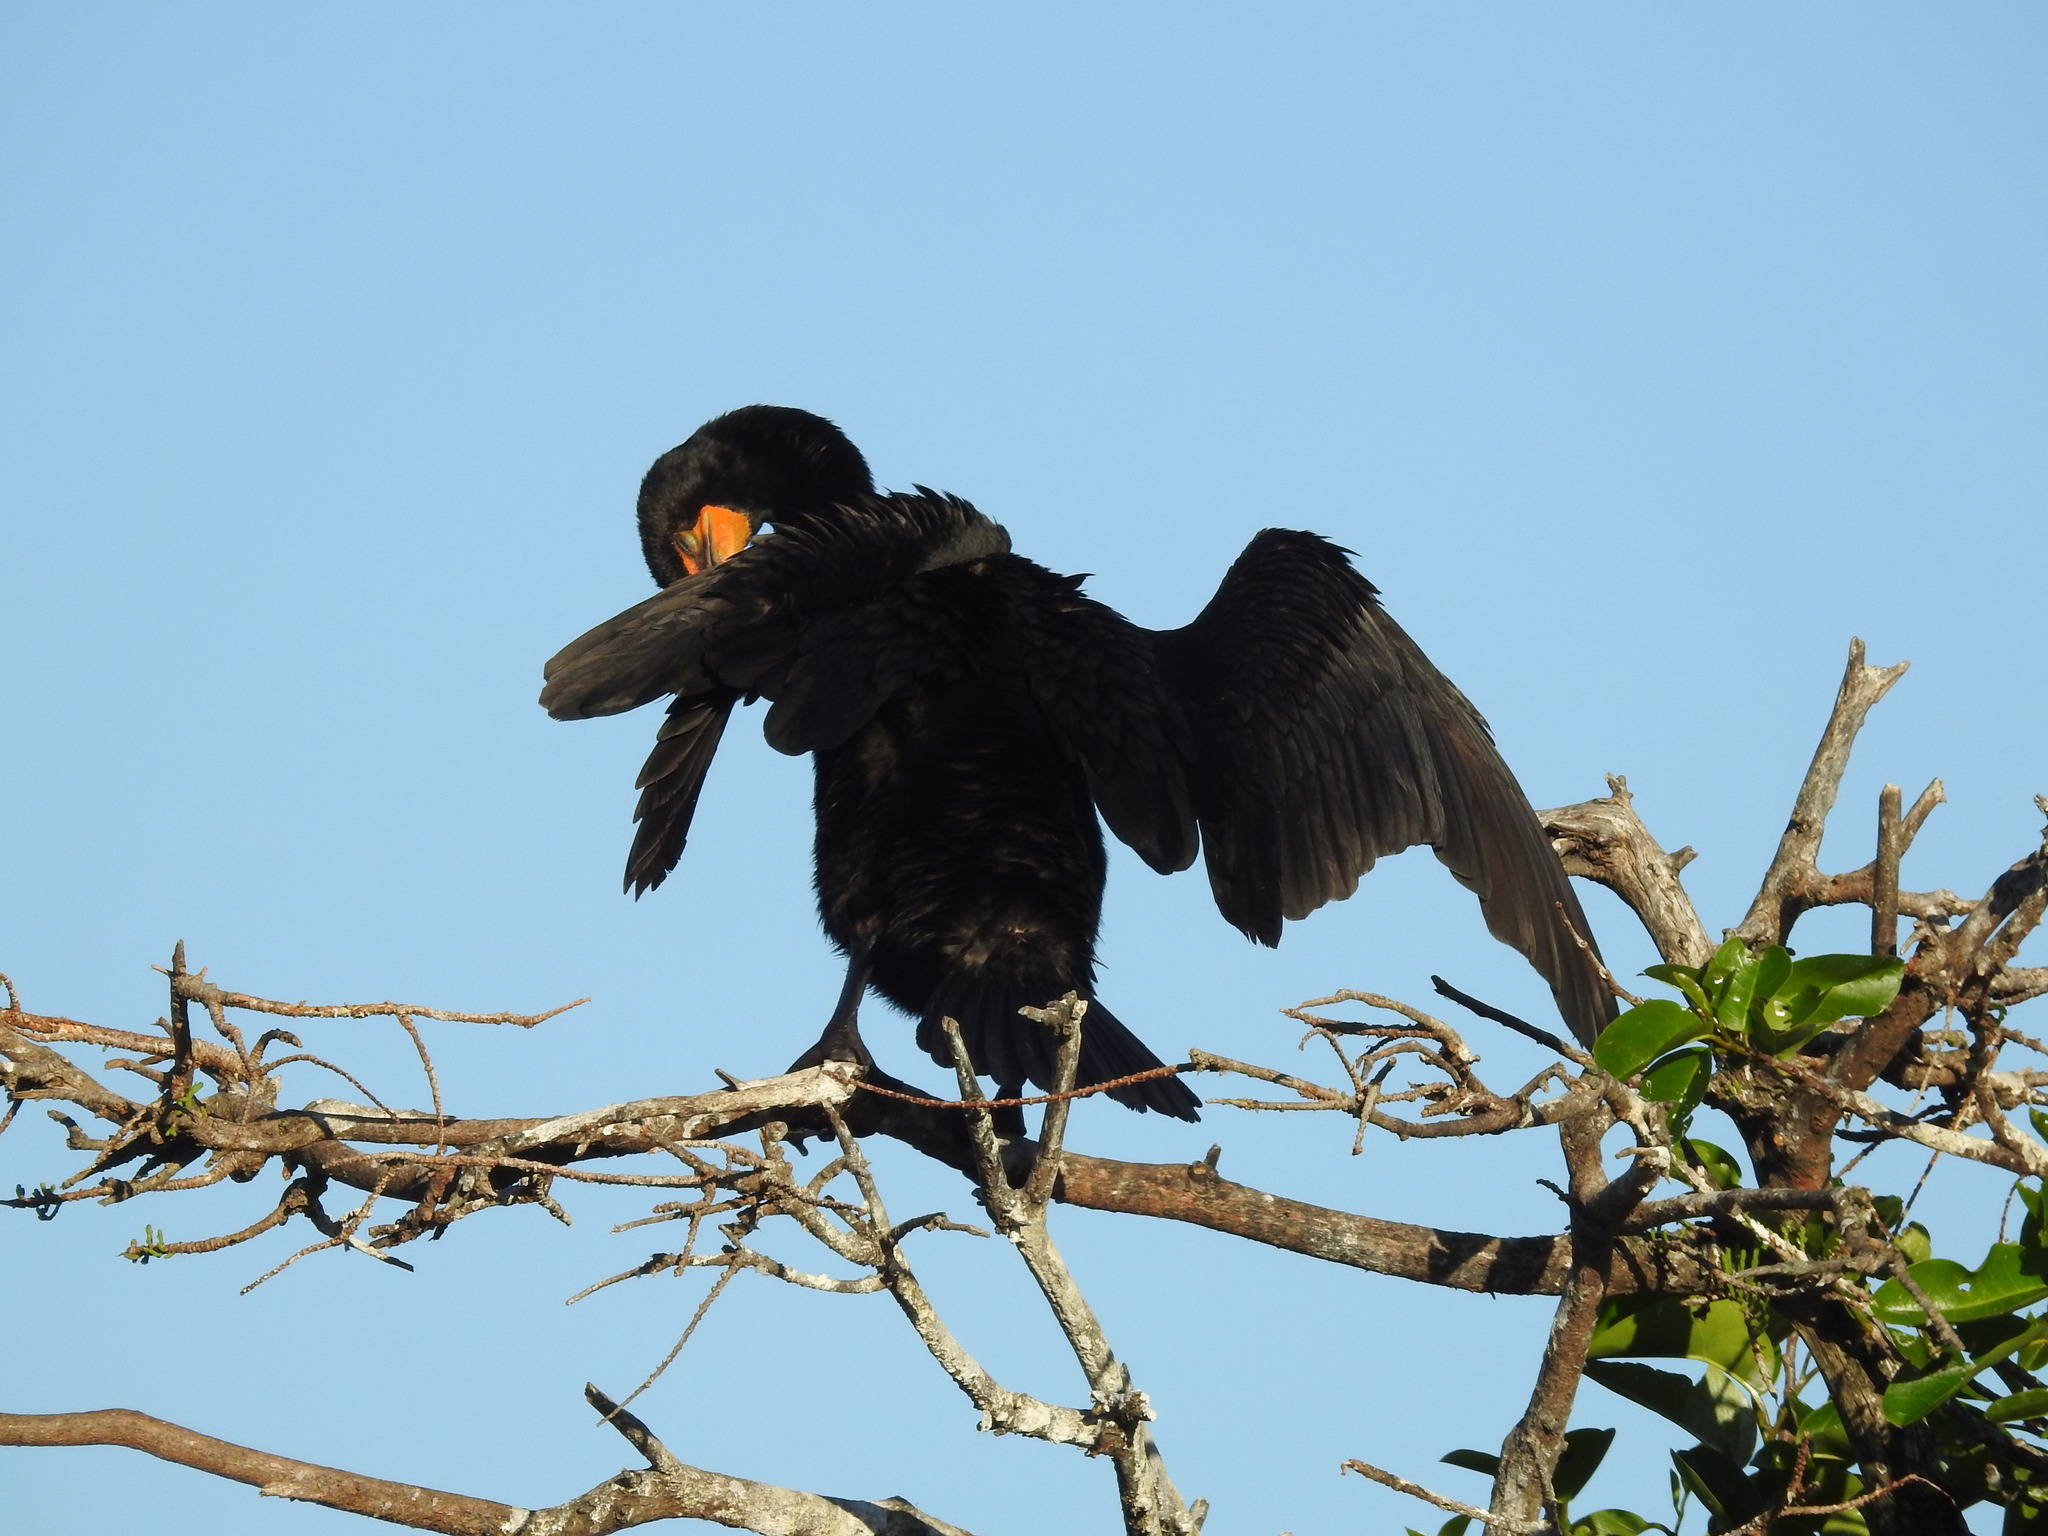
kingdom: Animalia
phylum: Chordata
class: Aves
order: Suliformes
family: Phalacrocoracidae
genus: Phalacrocorax
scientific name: Phalacrocorax auritus
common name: Double-crested cormorant
